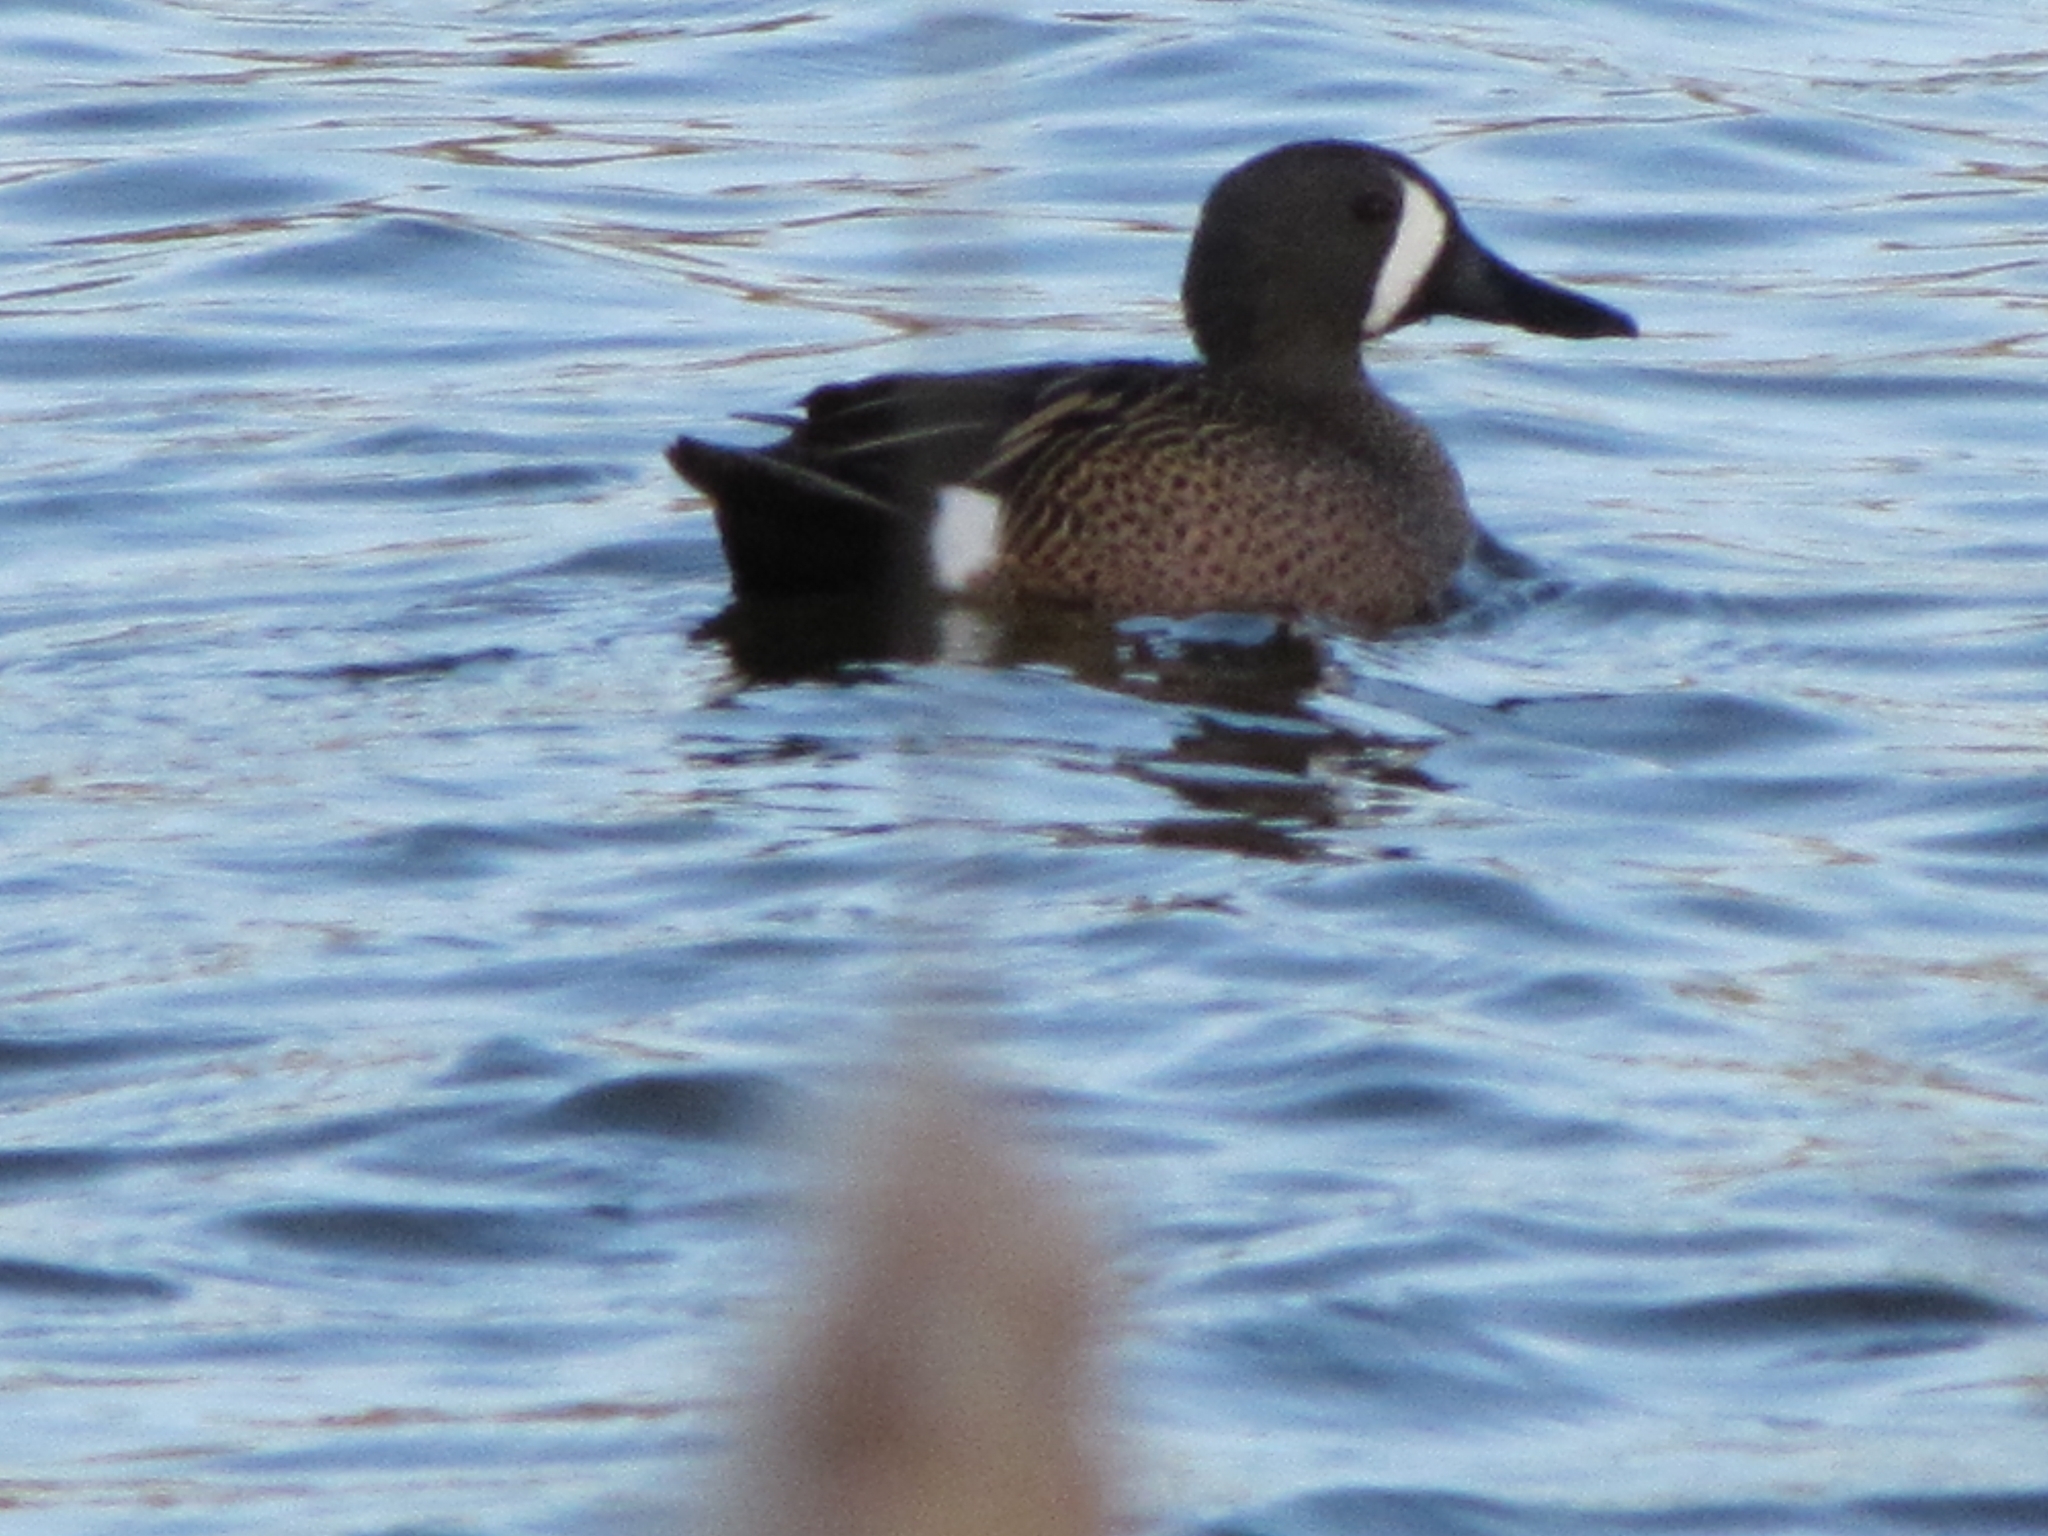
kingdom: Animalia
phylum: Chordata
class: Aves
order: Anseriformes
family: Anatidae
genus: Spatula
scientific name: Spatula discors
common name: Blue-winged teal
